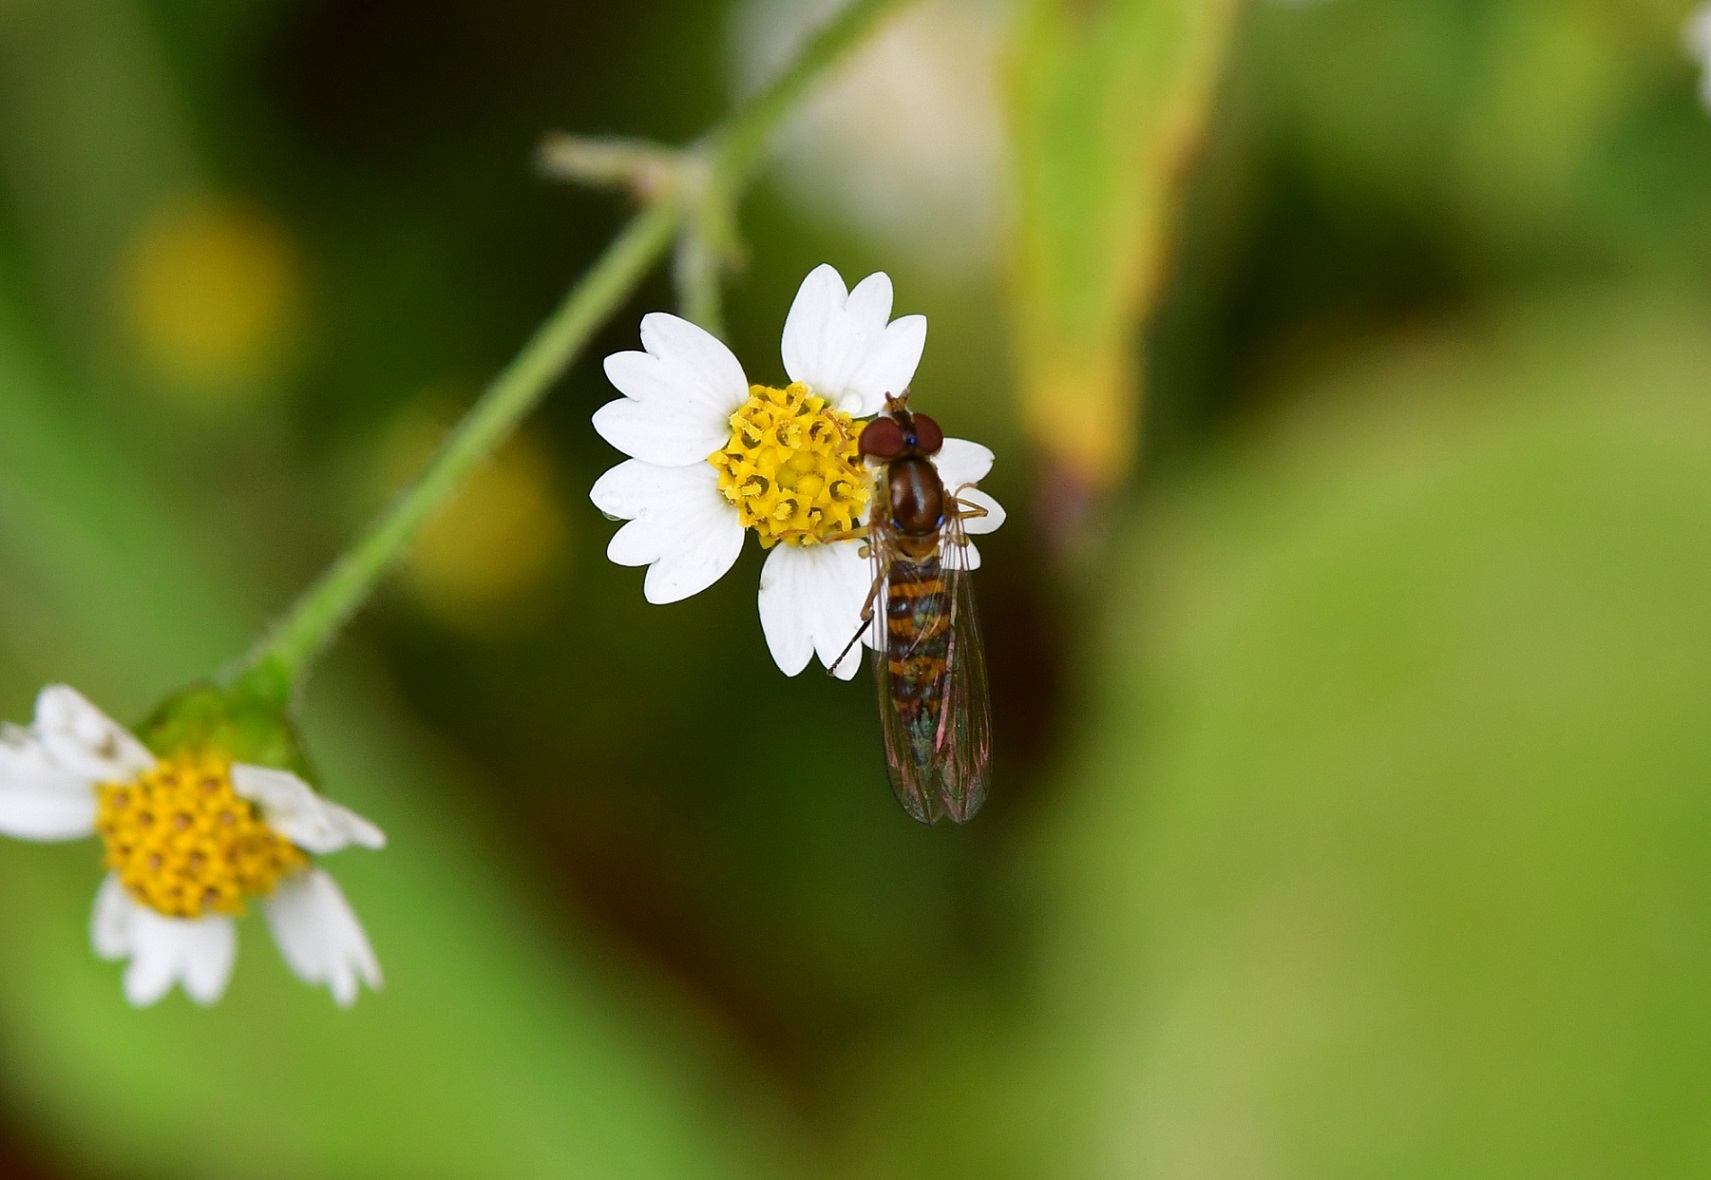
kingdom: Animalia
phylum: Arthropoda
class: Insecta
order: Diptera
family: Syrphidae
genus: Toxomerus
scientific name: Toxomerus mutuus
